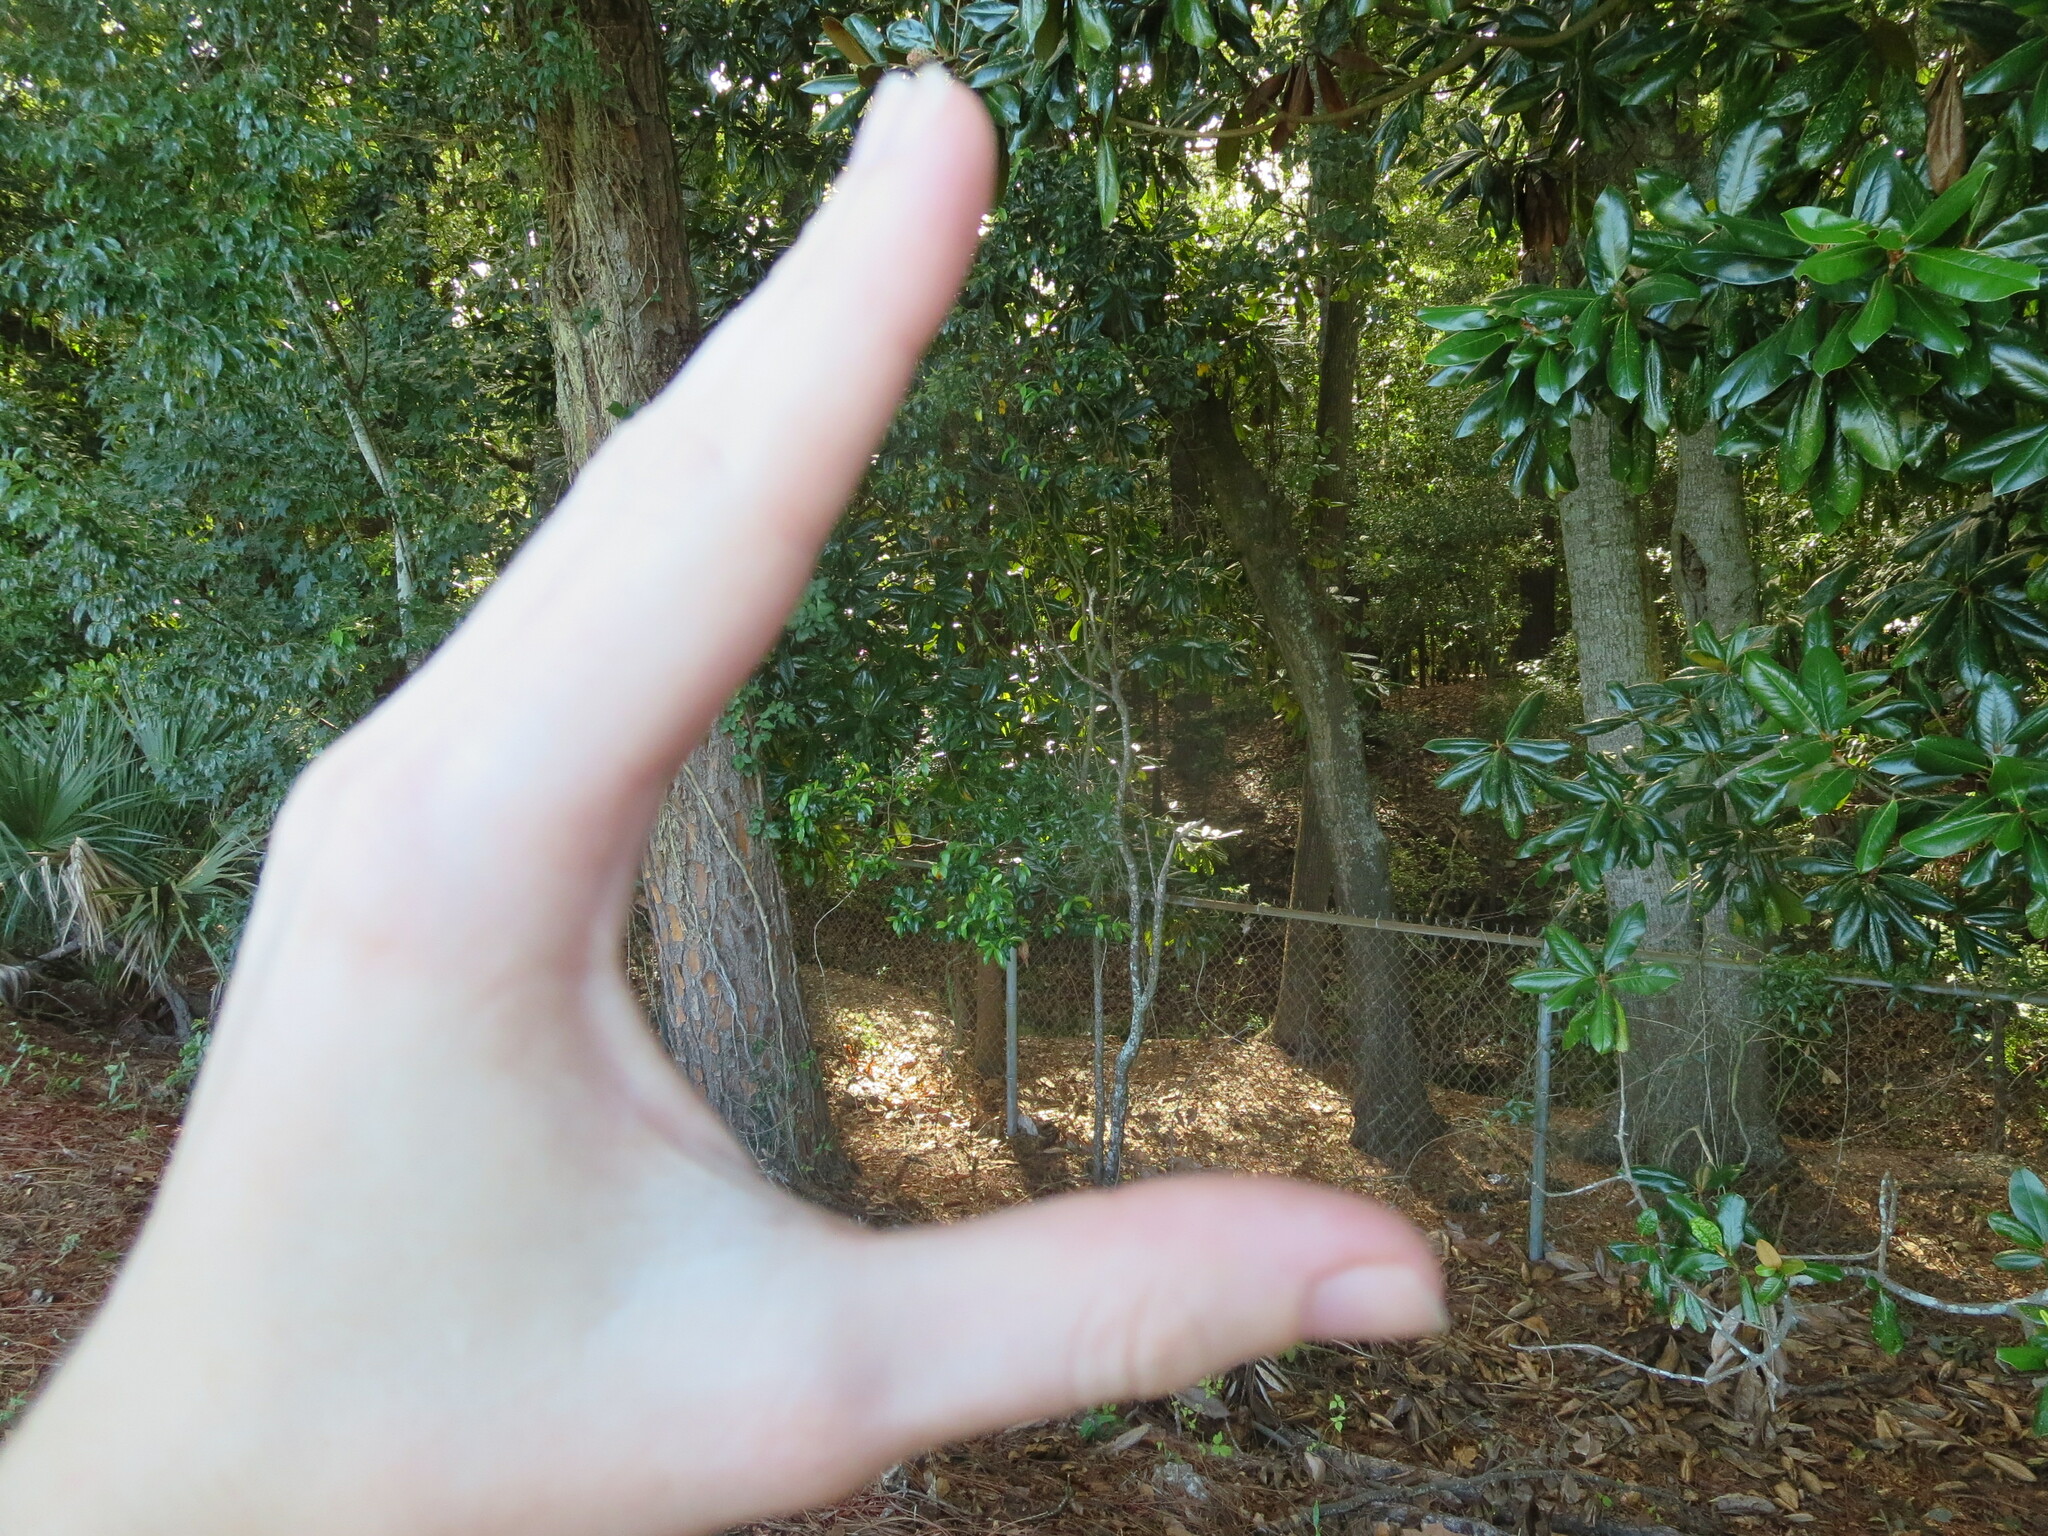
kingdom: Plantae
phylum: Tracheophyta
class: Magnoliopsida
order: Magnoliales
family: Magnoliaceae
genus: Magnolia
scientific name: Magnolia grandiflora
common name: Southern magnolia
